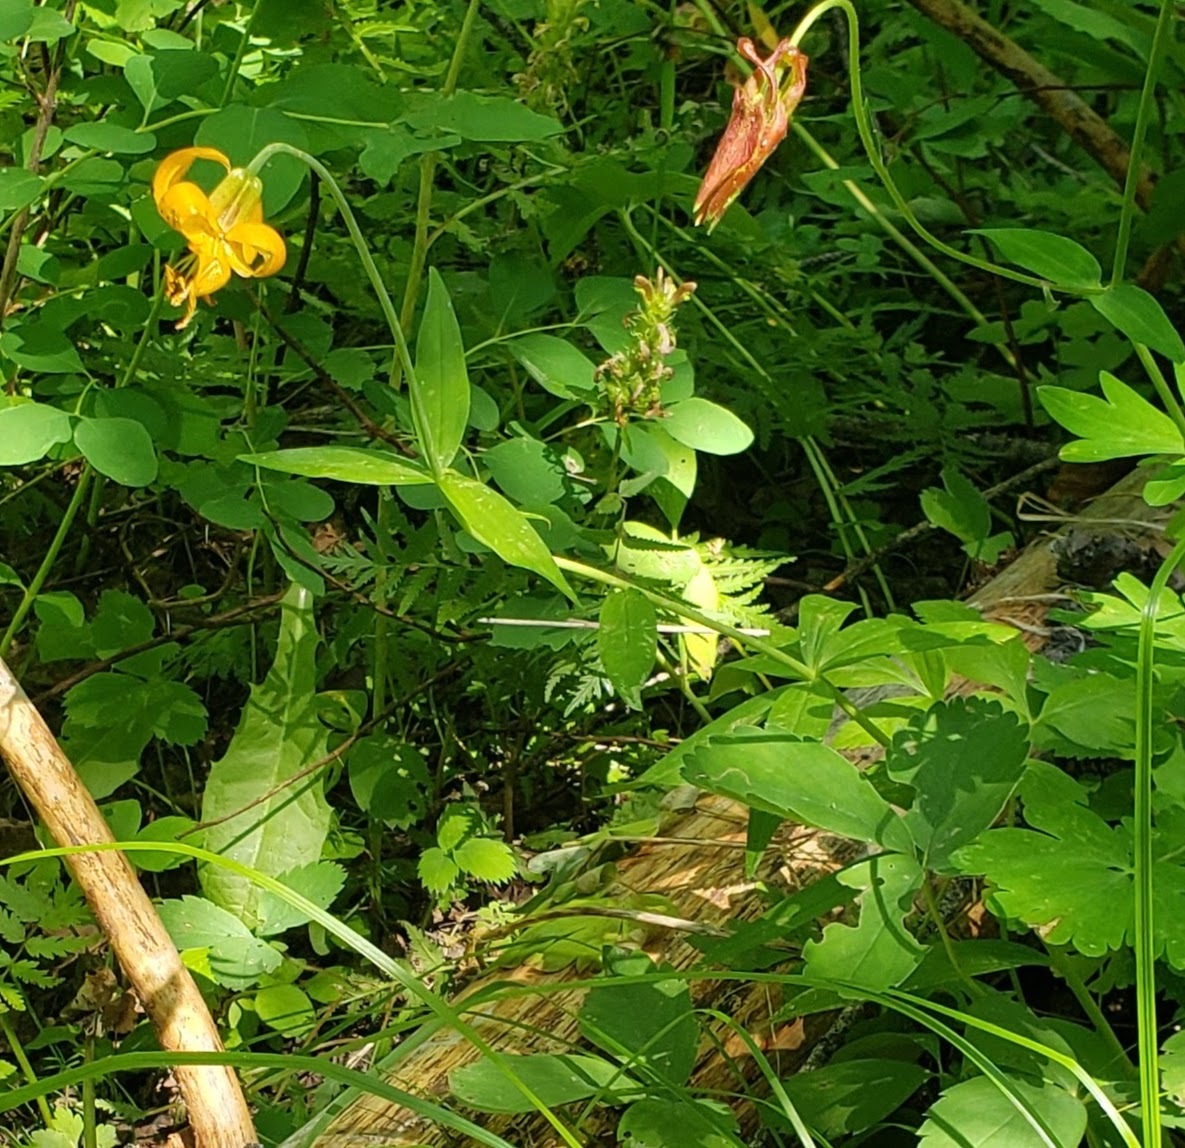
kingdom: Plantae
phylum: Tracheophyta
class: Liliopsida
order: Liliales
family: Liliaceae
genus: Lilium
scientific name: Lilium columbianum
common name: Columbia lily
